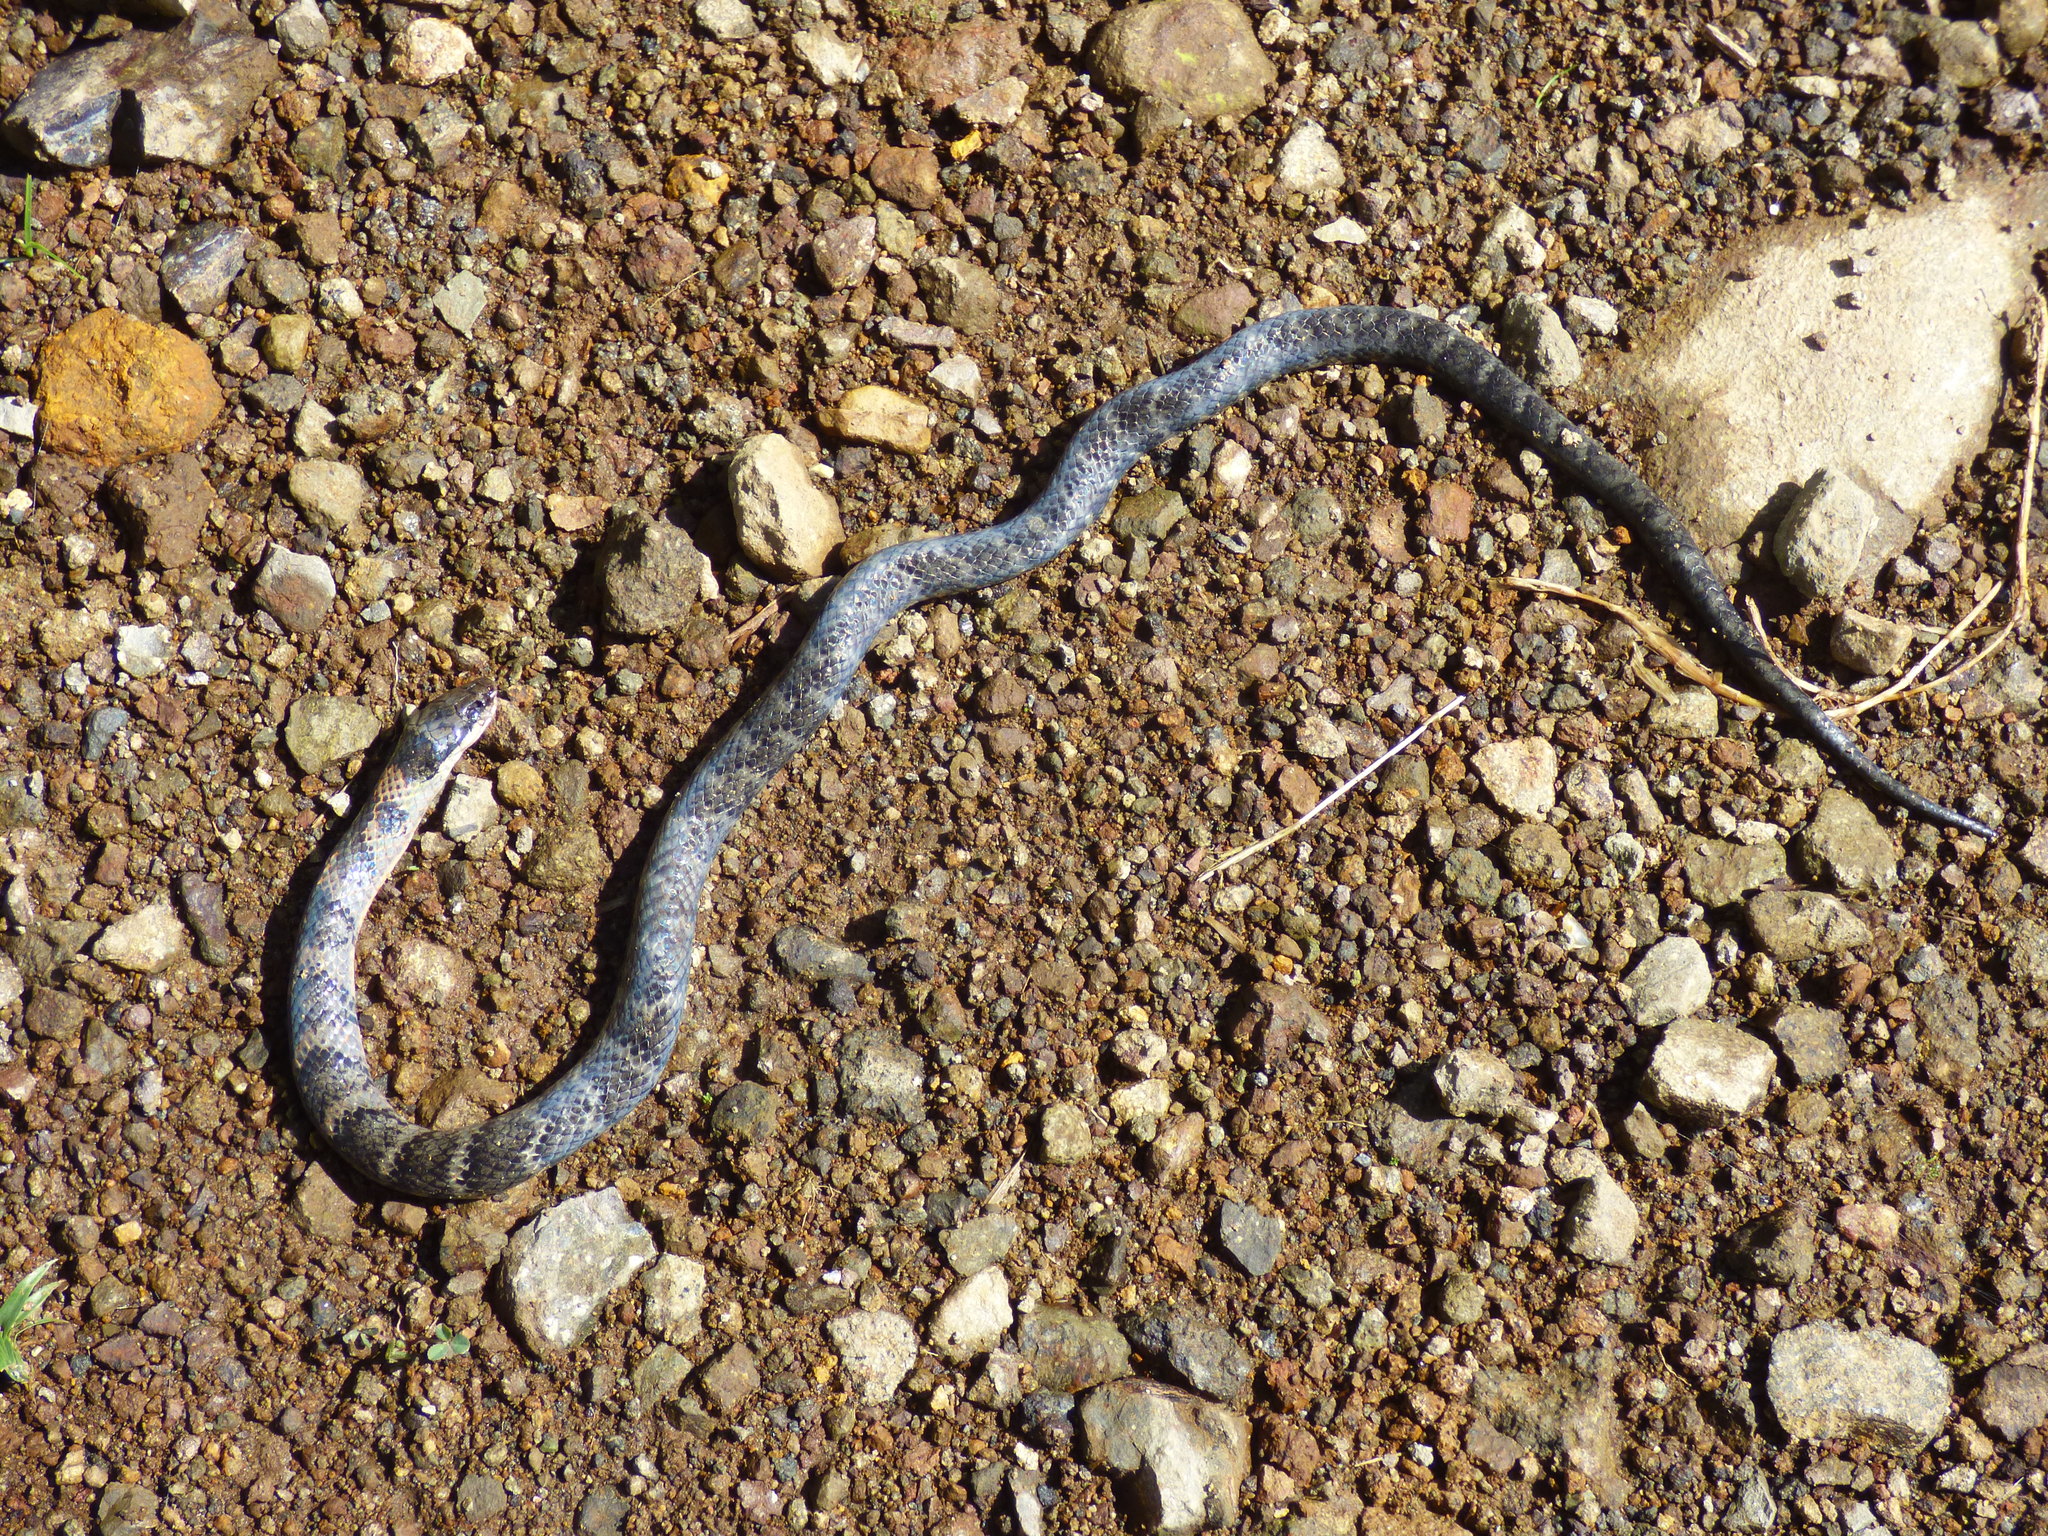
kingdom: Animalia
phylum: Chordata
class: Squamata
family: Colubridae
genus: Erythrolamprus
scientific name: Erythrolamprus epinephalus
